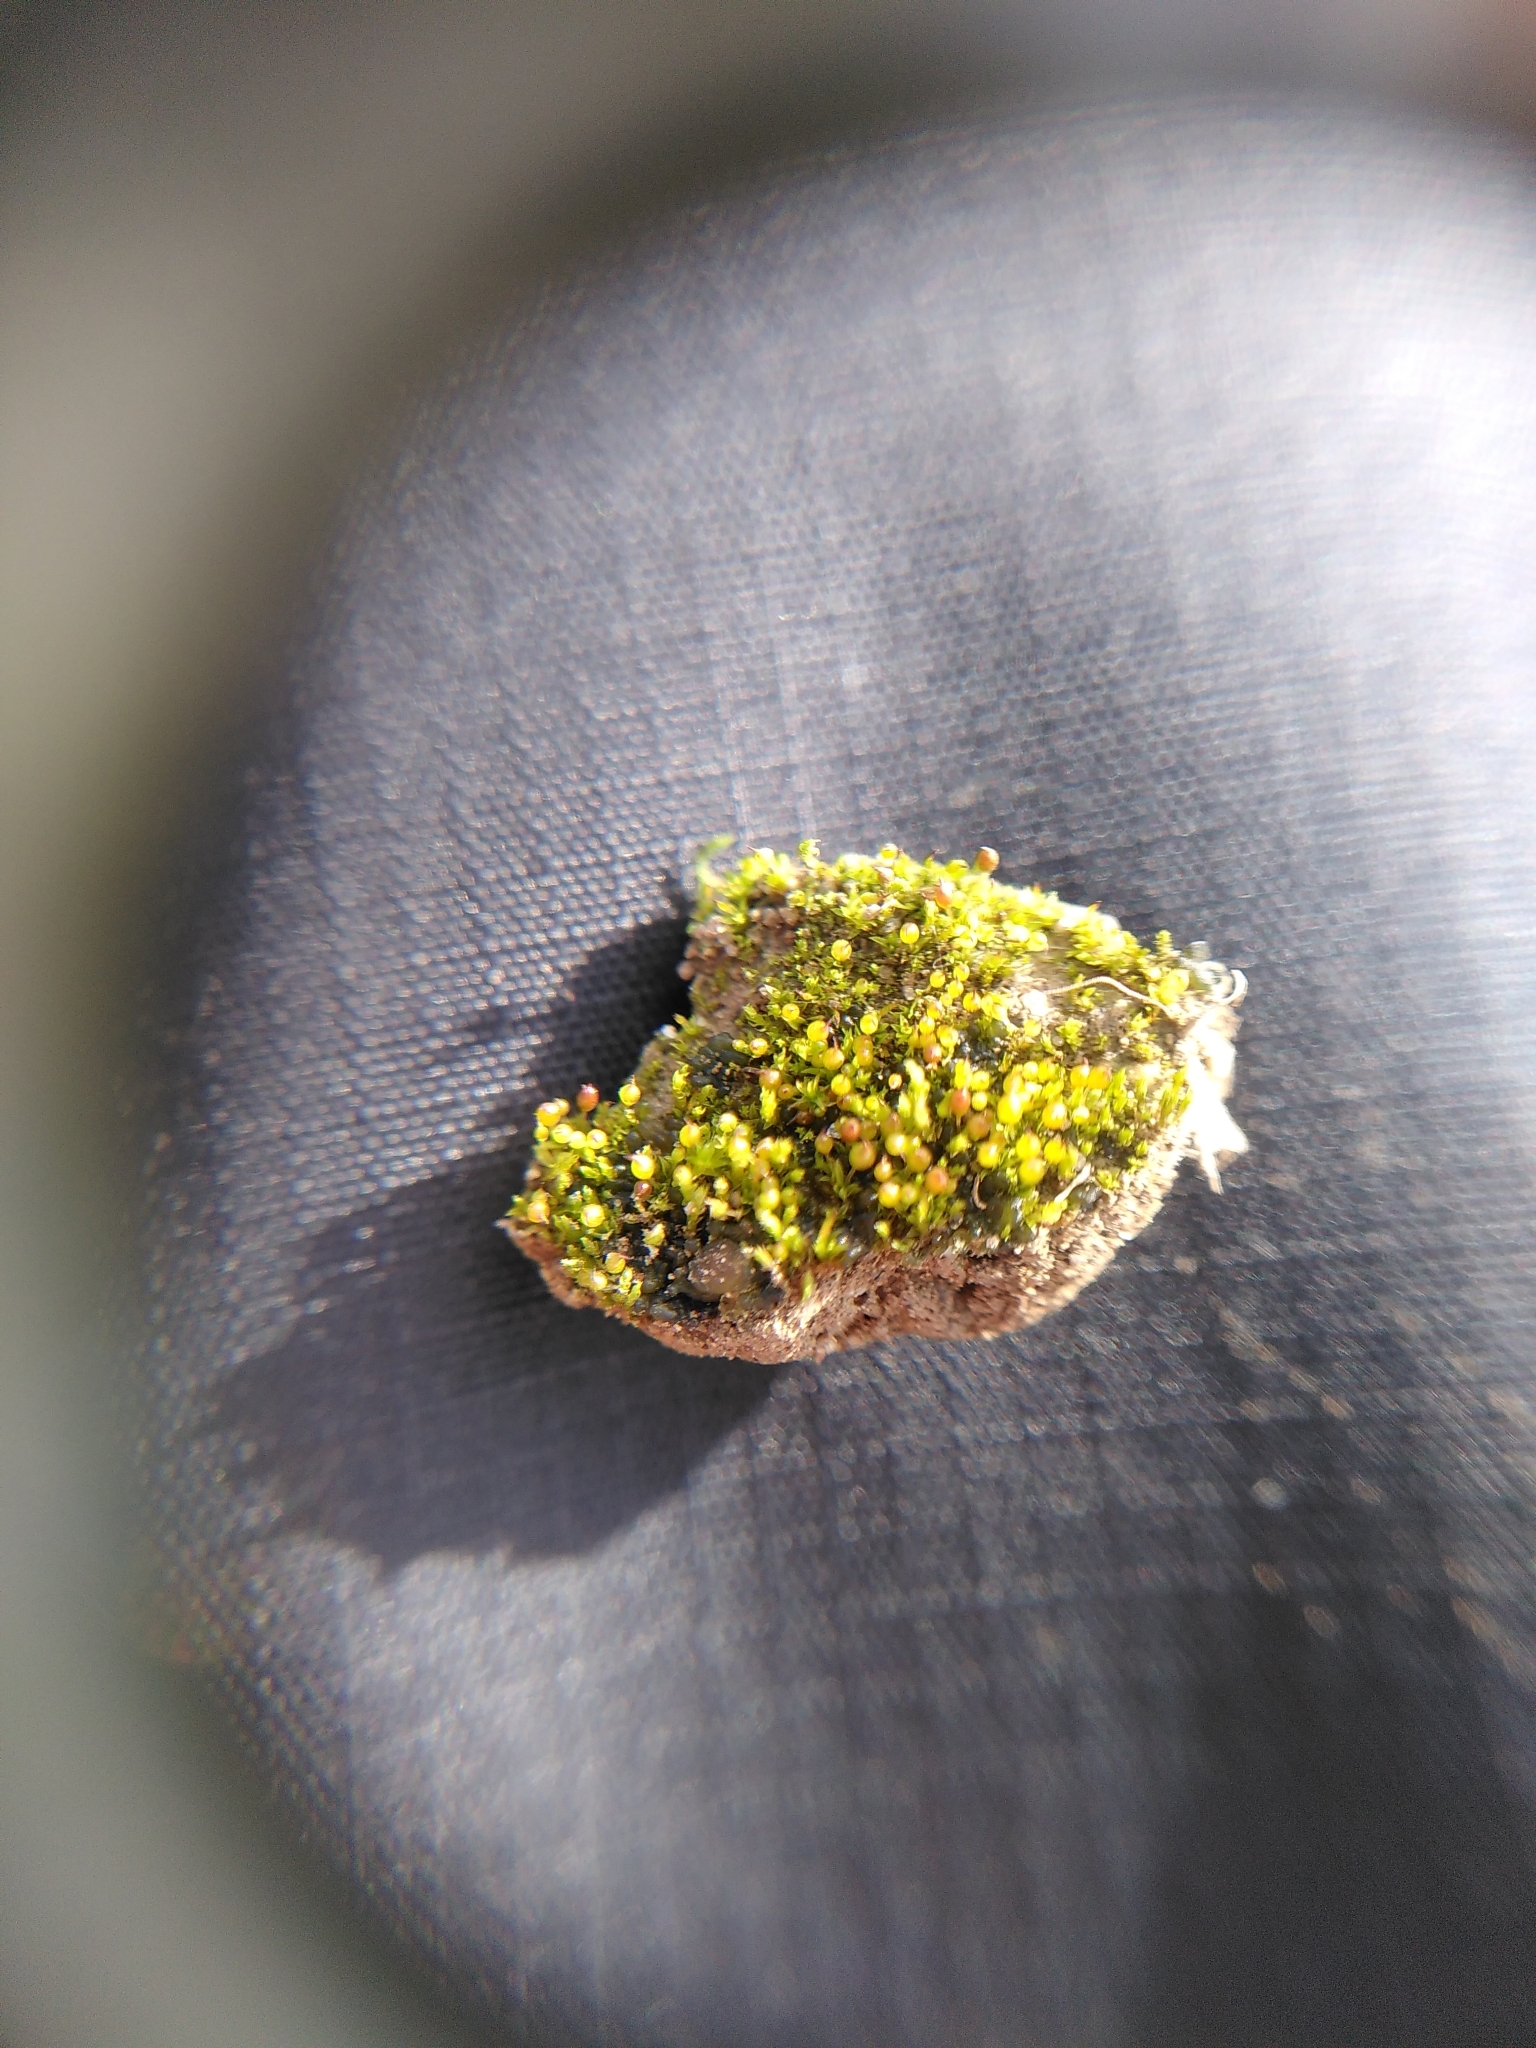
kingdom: Plantae
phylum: Bryophyta
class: Bryopsida
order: Pottiales
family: Pottiaceae
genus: Microbryum
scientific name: Microbryum rectum
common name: Upright pottia
